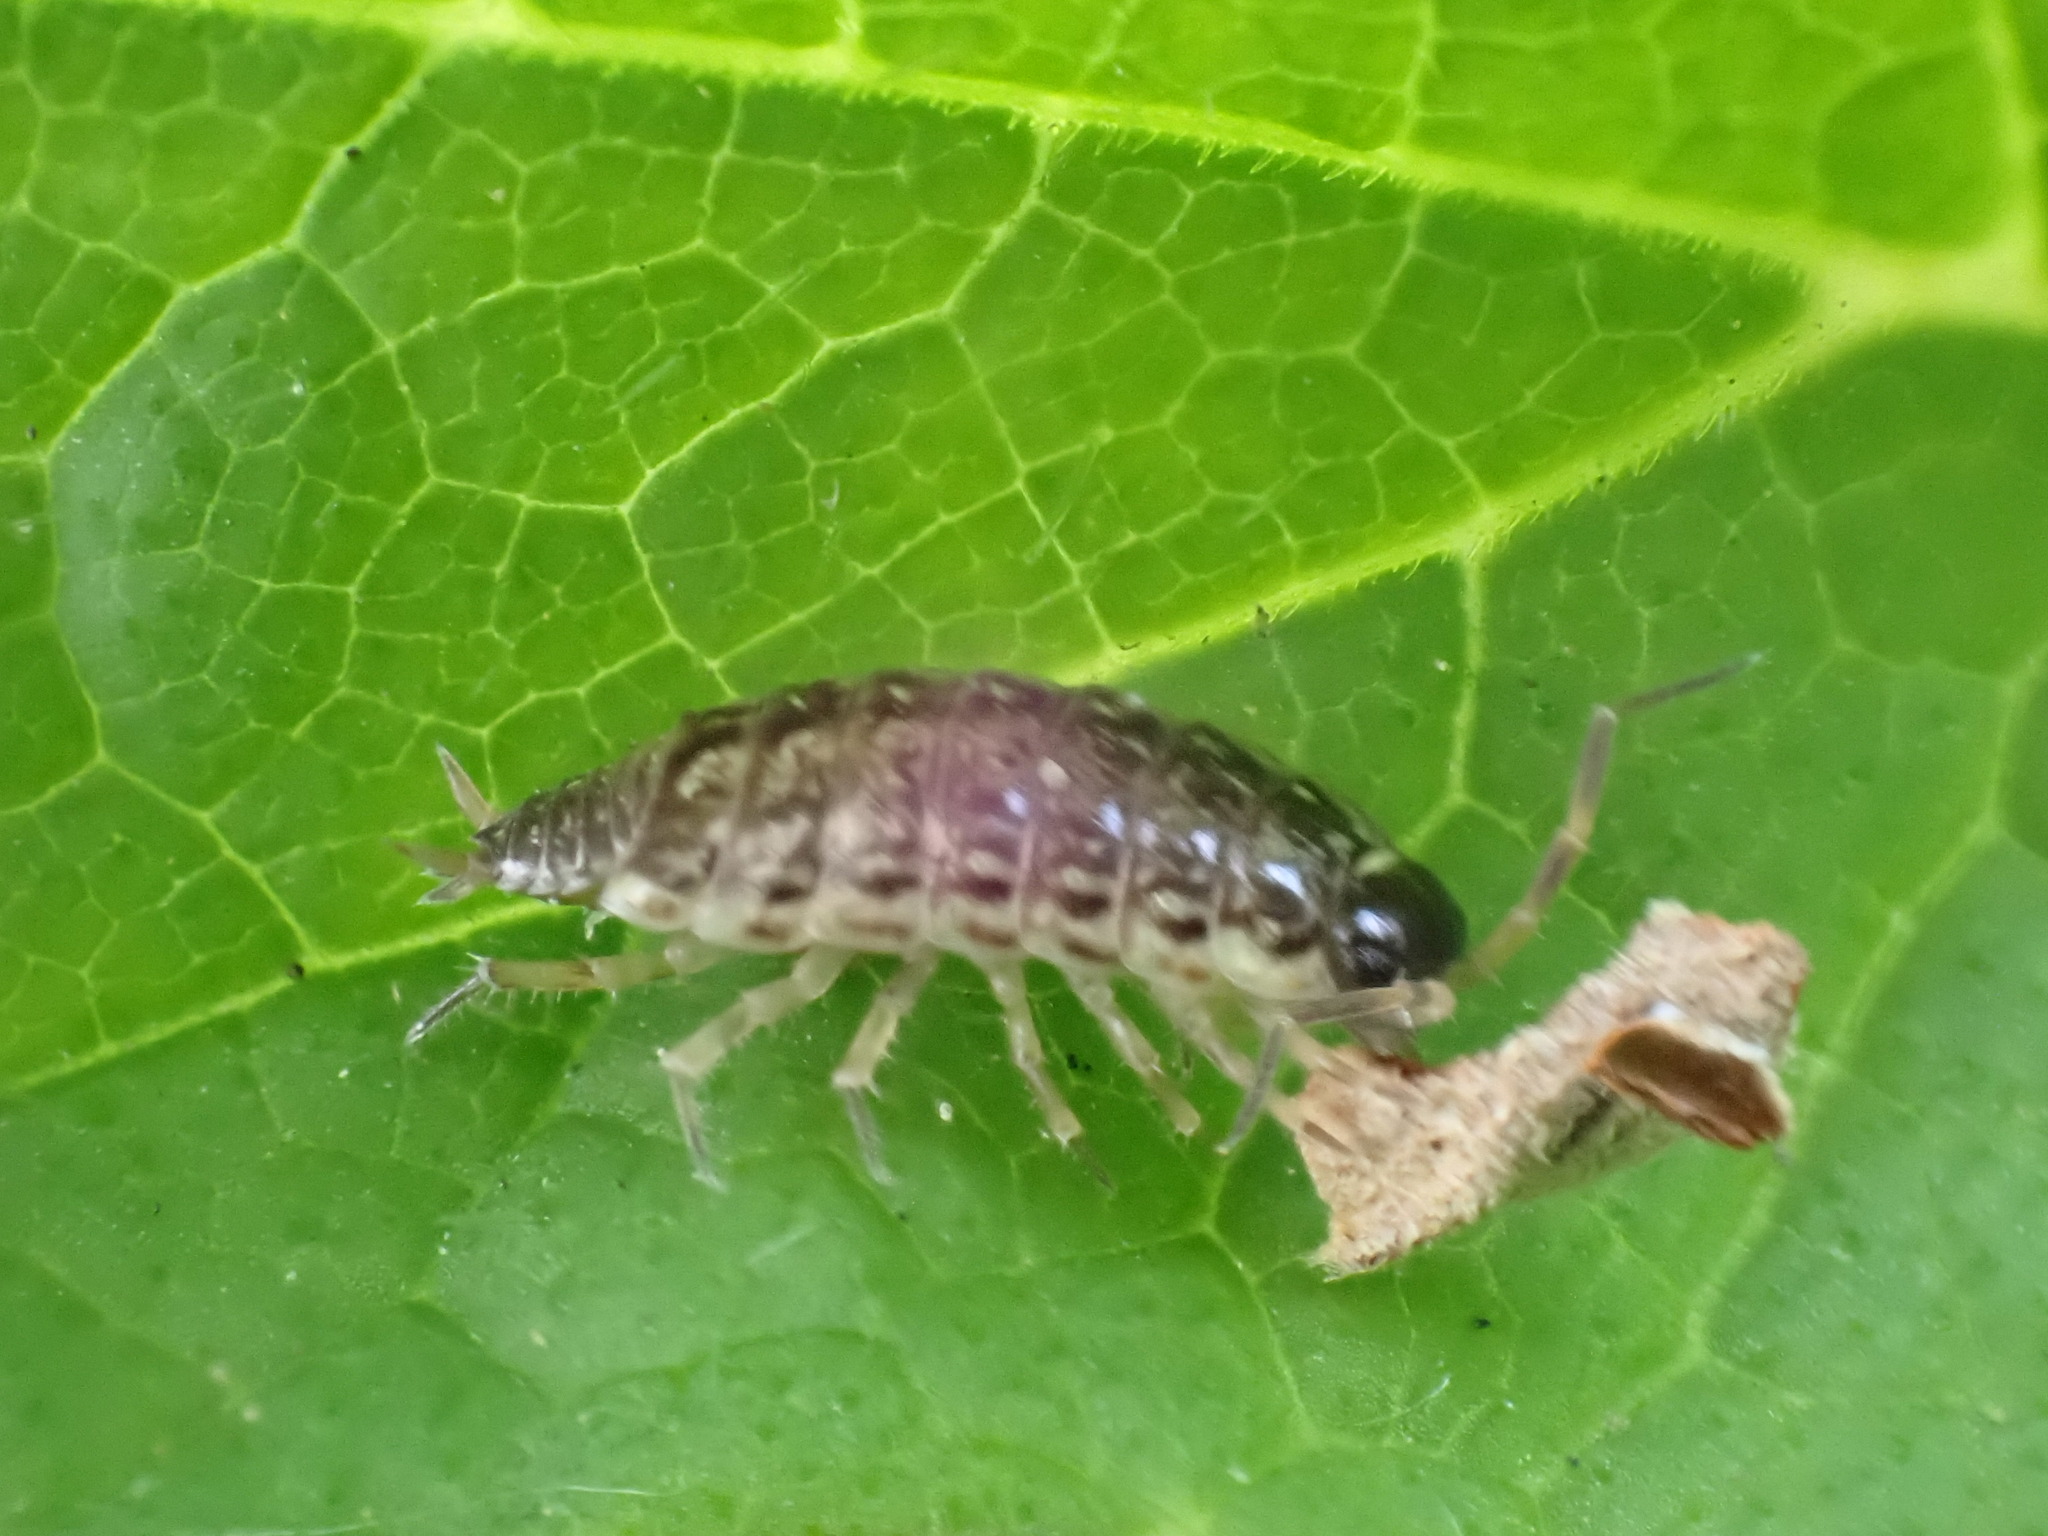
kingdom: Animalia
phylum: Arthropoda
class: Malacostraca
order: Isopoda
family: Philosciidae
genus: Philoscia
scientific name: Philoscia muscorum
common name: Common striped woodlouse
